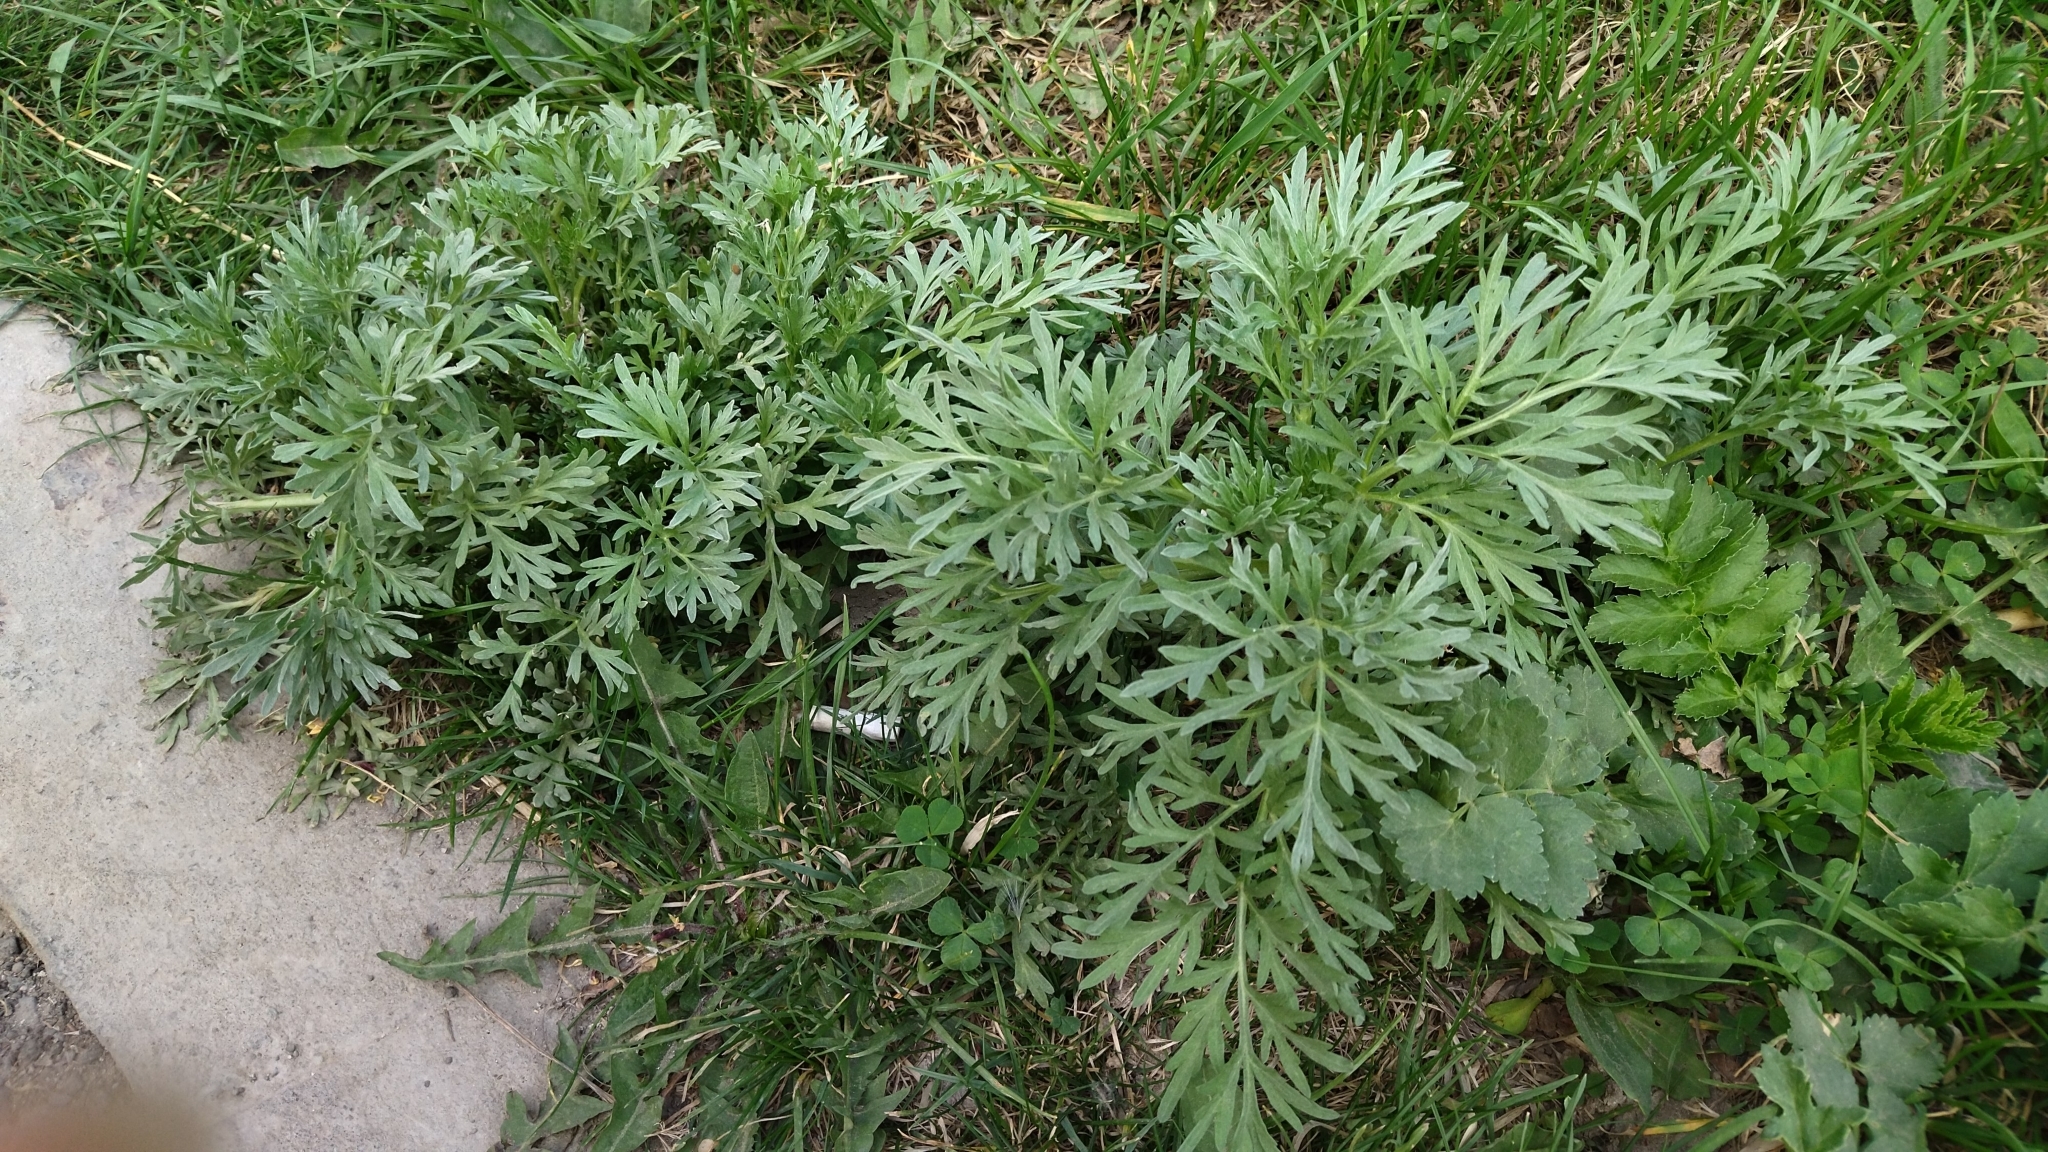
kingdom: Plantae
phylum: Tracheophyta
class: Magnoliopsida
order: Asterales
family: Asteraceae
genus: Artemisia
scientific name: Artemisia absinthium
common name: Wormwood
